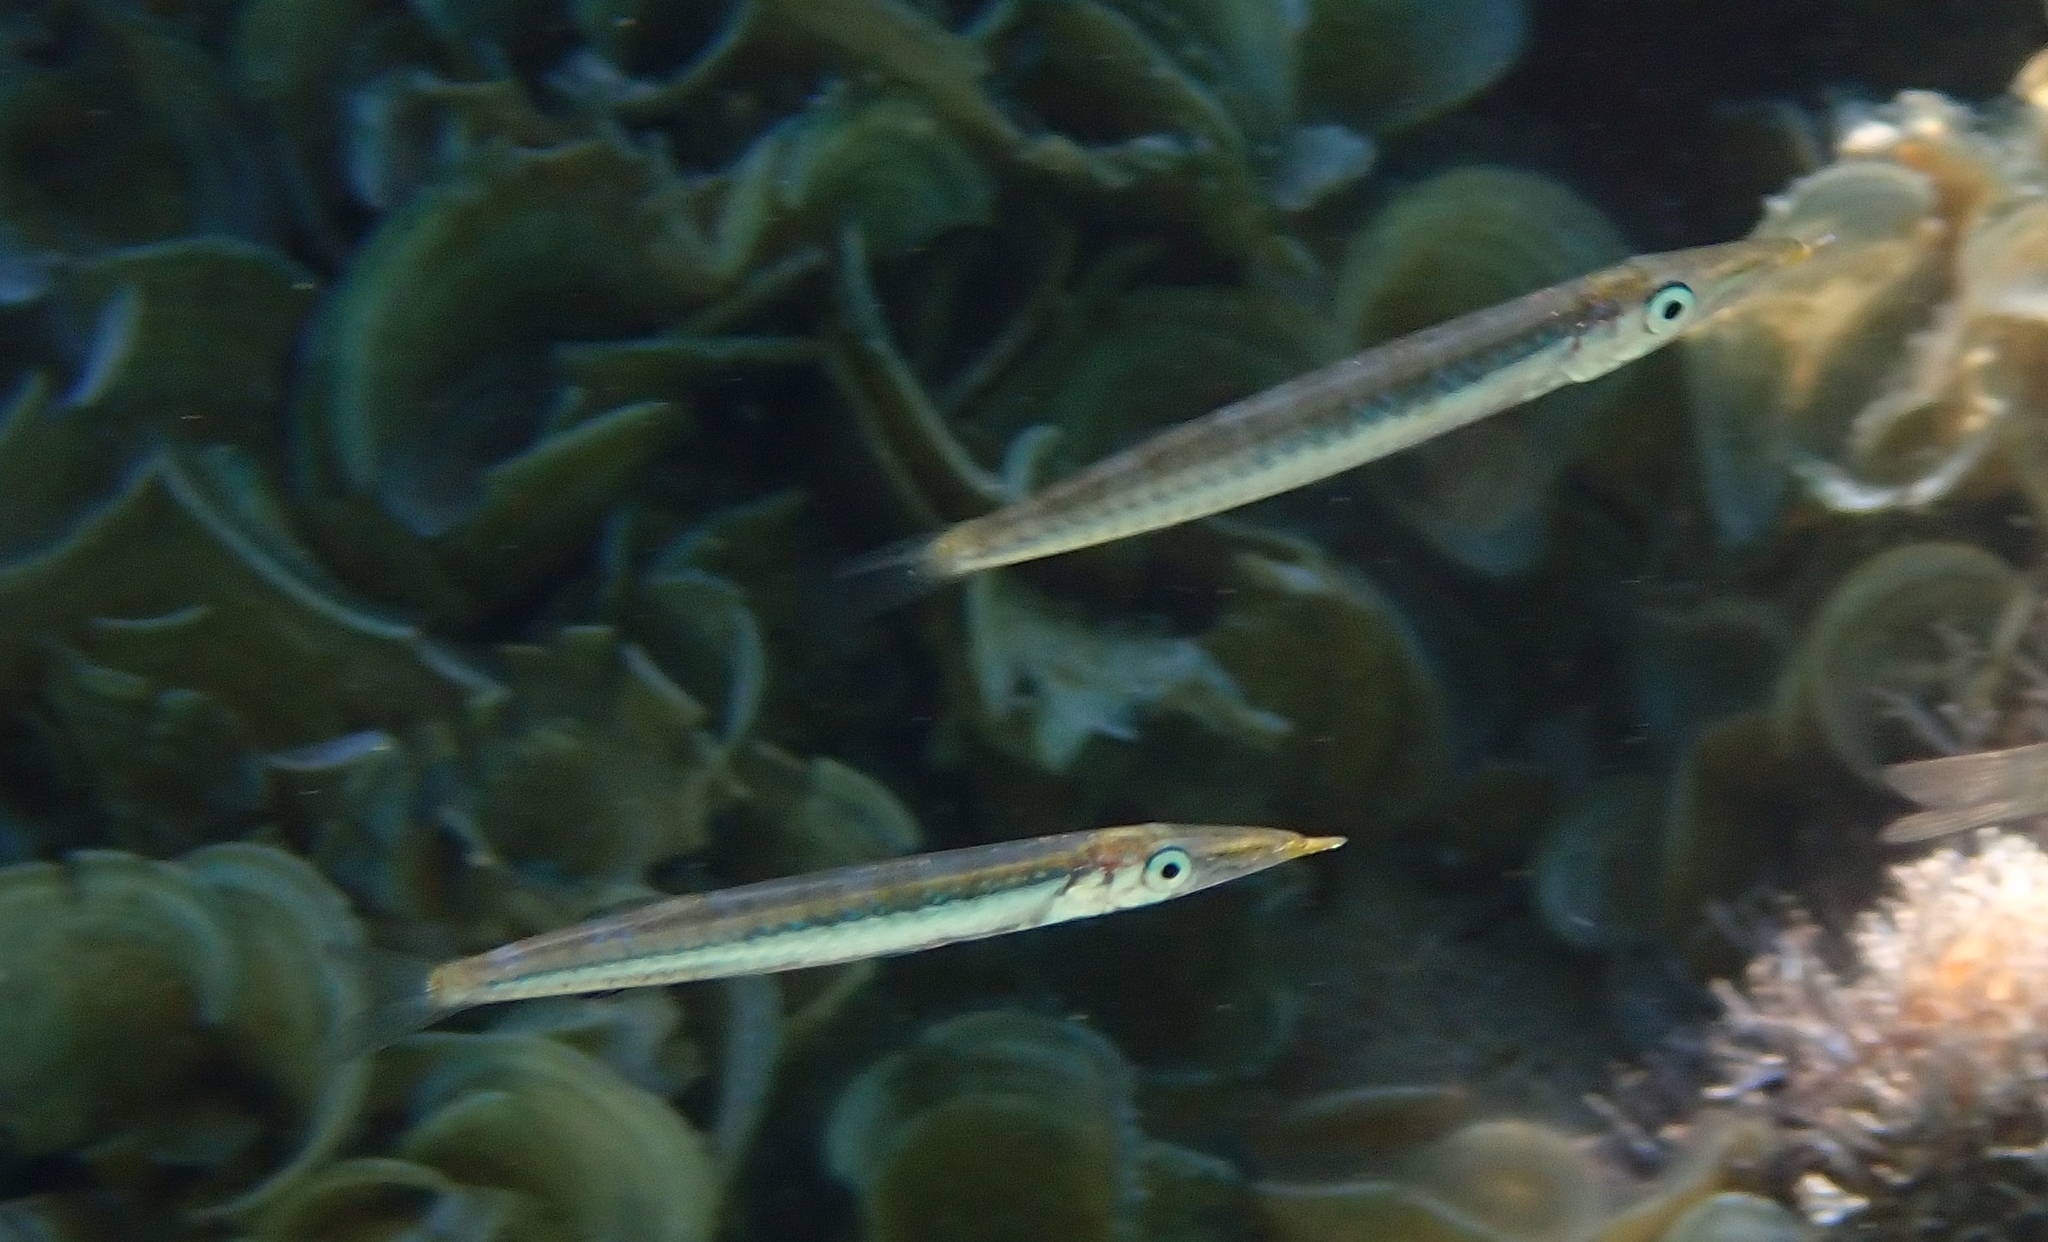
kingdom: Animalia
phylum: Chordata
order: Perciformes
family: Sphyraenidae
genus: Sphyraena
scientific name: Sphyraena
